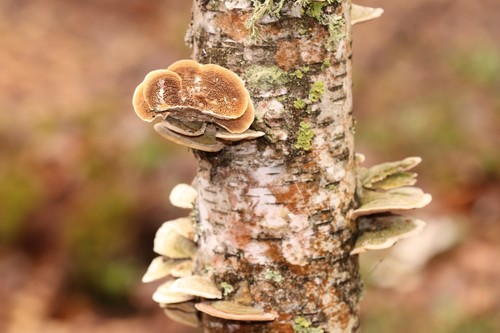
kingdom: Fungi
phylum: Basidiomycota
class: Agaricomycetes
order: Hymenochaetales
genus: Trichaptum
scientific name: Trichaptum biforme
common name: Violet-toothed polypore
